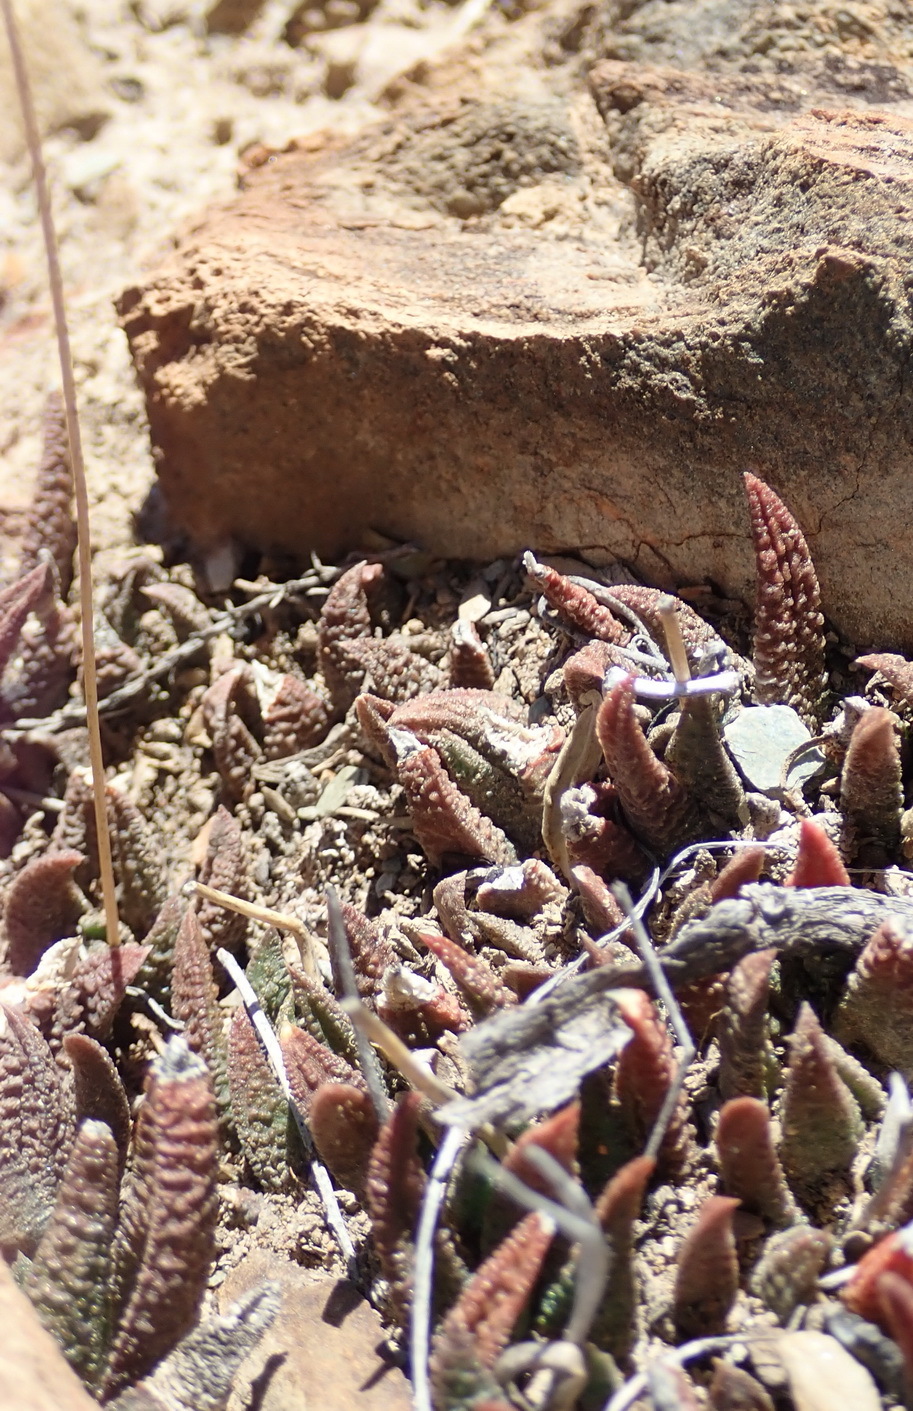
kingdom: Plantae
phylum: Tracheophyta
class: Liliopsida
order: Asparagales
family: Asphodelaceae
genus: Haworthiopsis
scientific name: Haworthiopsis scabra
